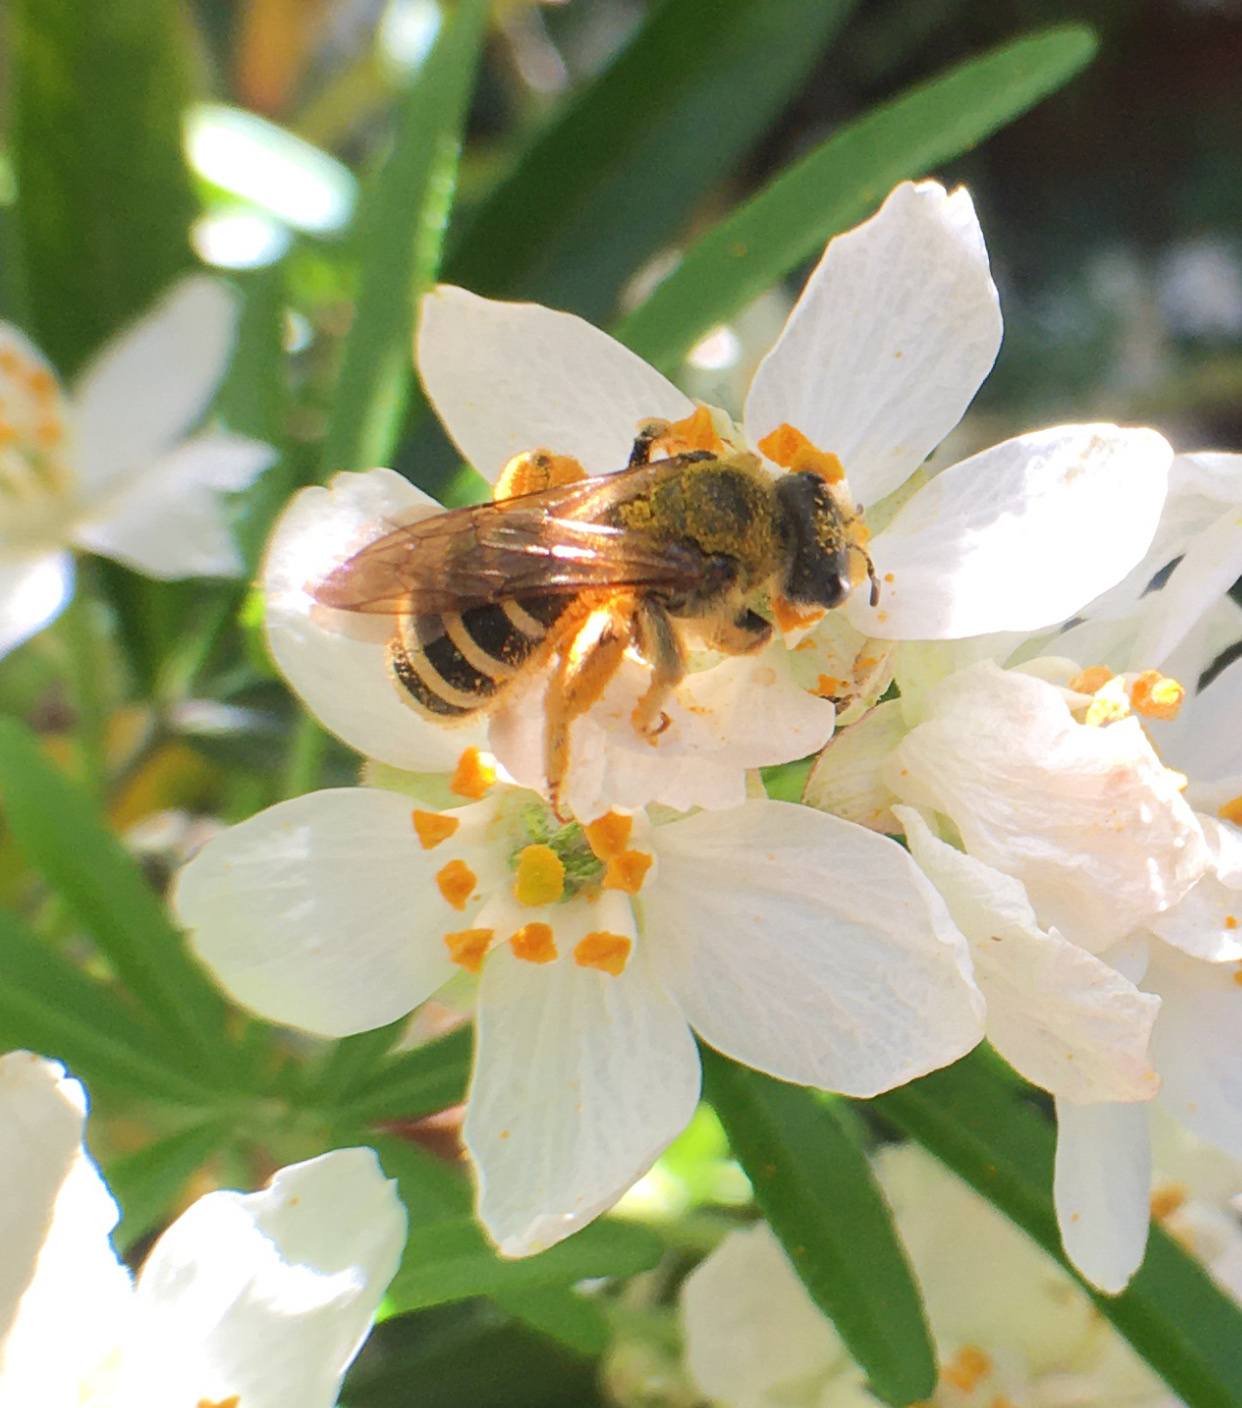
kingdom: Animalia
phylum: Arthropoda
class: Insecta
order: Hymenoptera
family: Halictidae
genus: Halictus
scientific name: Halictus farinosus
